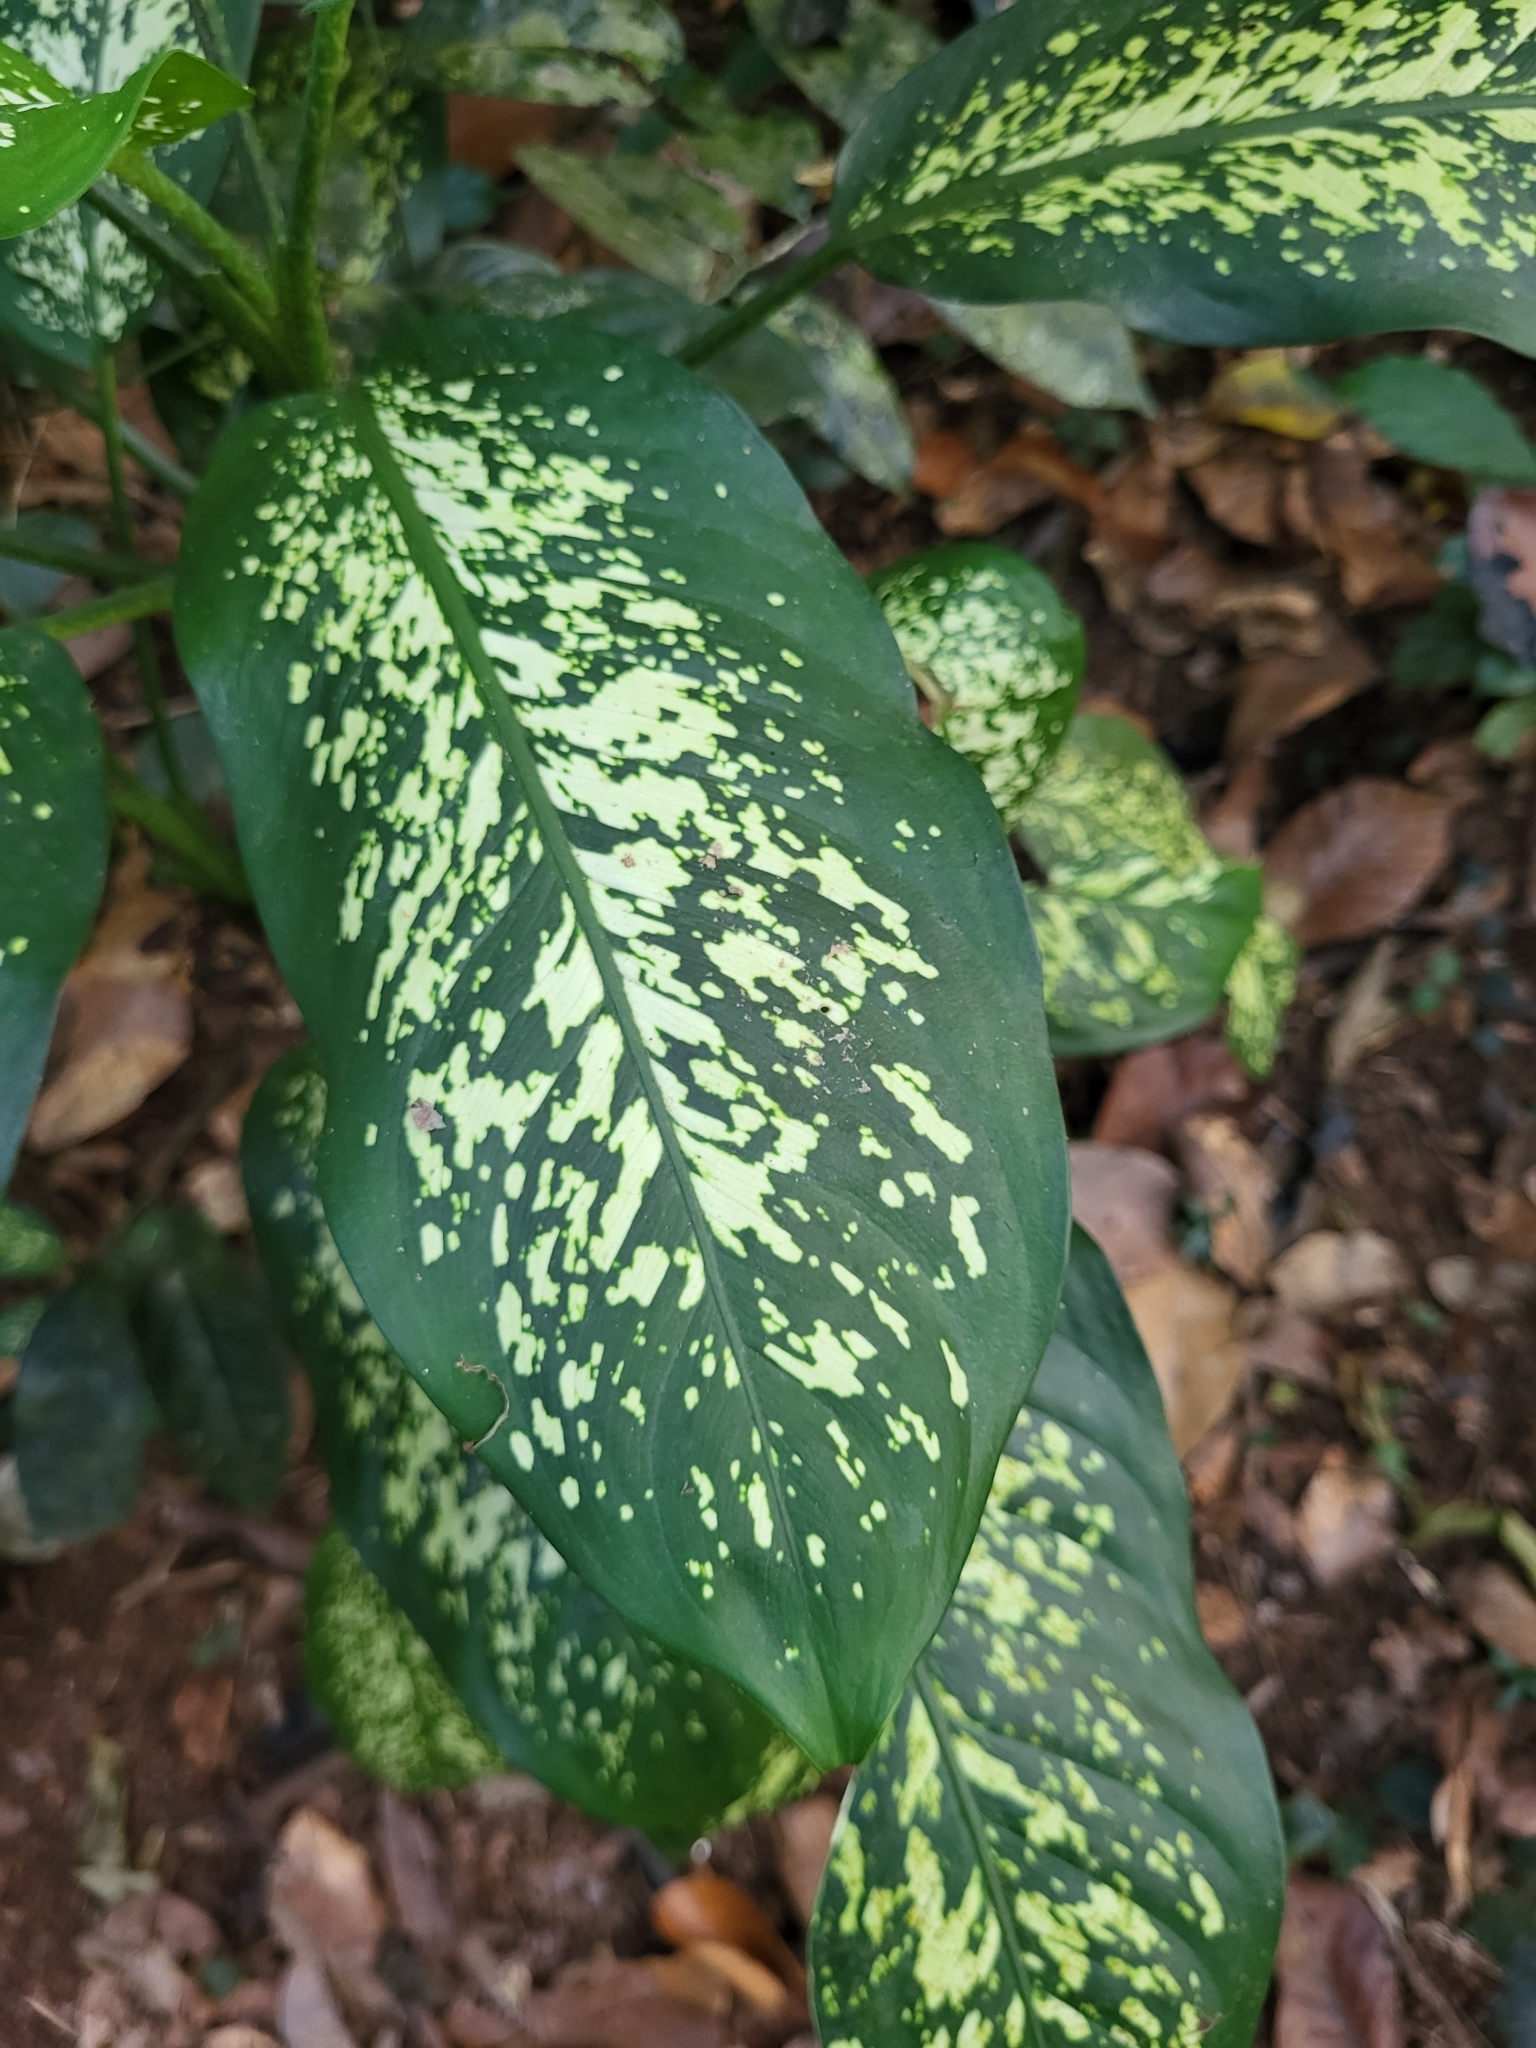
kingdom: Plantae
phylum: Tracheophyta
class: Liliopsida
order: Alismatales
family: Araceae
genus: Dieffenbachia
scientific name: Dieffenbachia seguine
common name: Dumbcane
